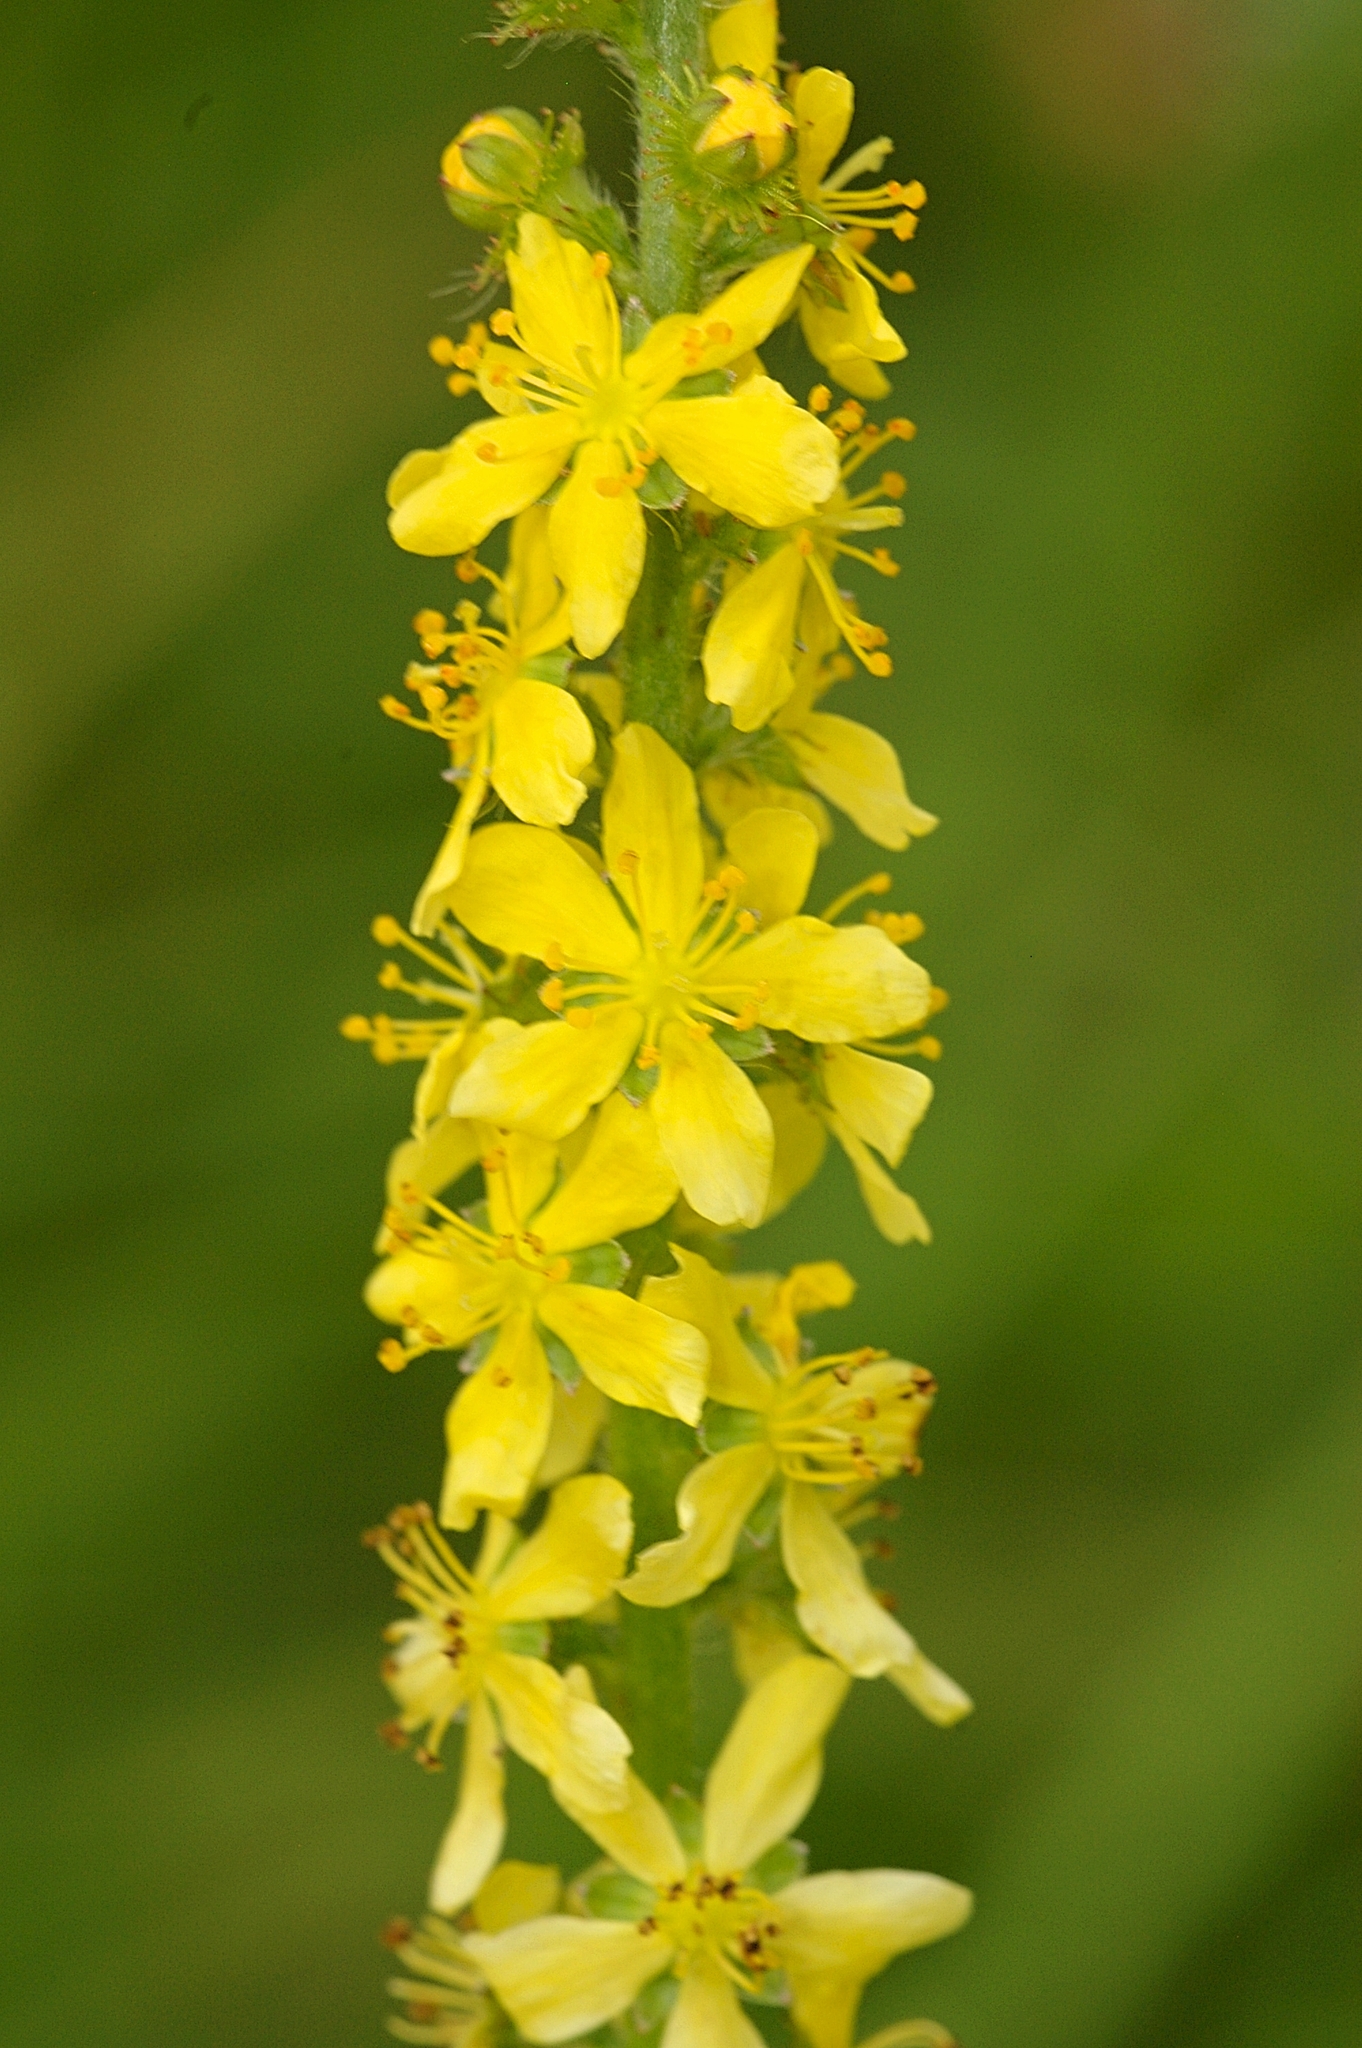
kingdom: Plantae
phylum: Tracheophyta
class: Magnoliopsida
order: Rosales
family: Rosaceae
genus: Agrimonia
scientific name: Agrimonia eupatoria
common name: Agrimony
